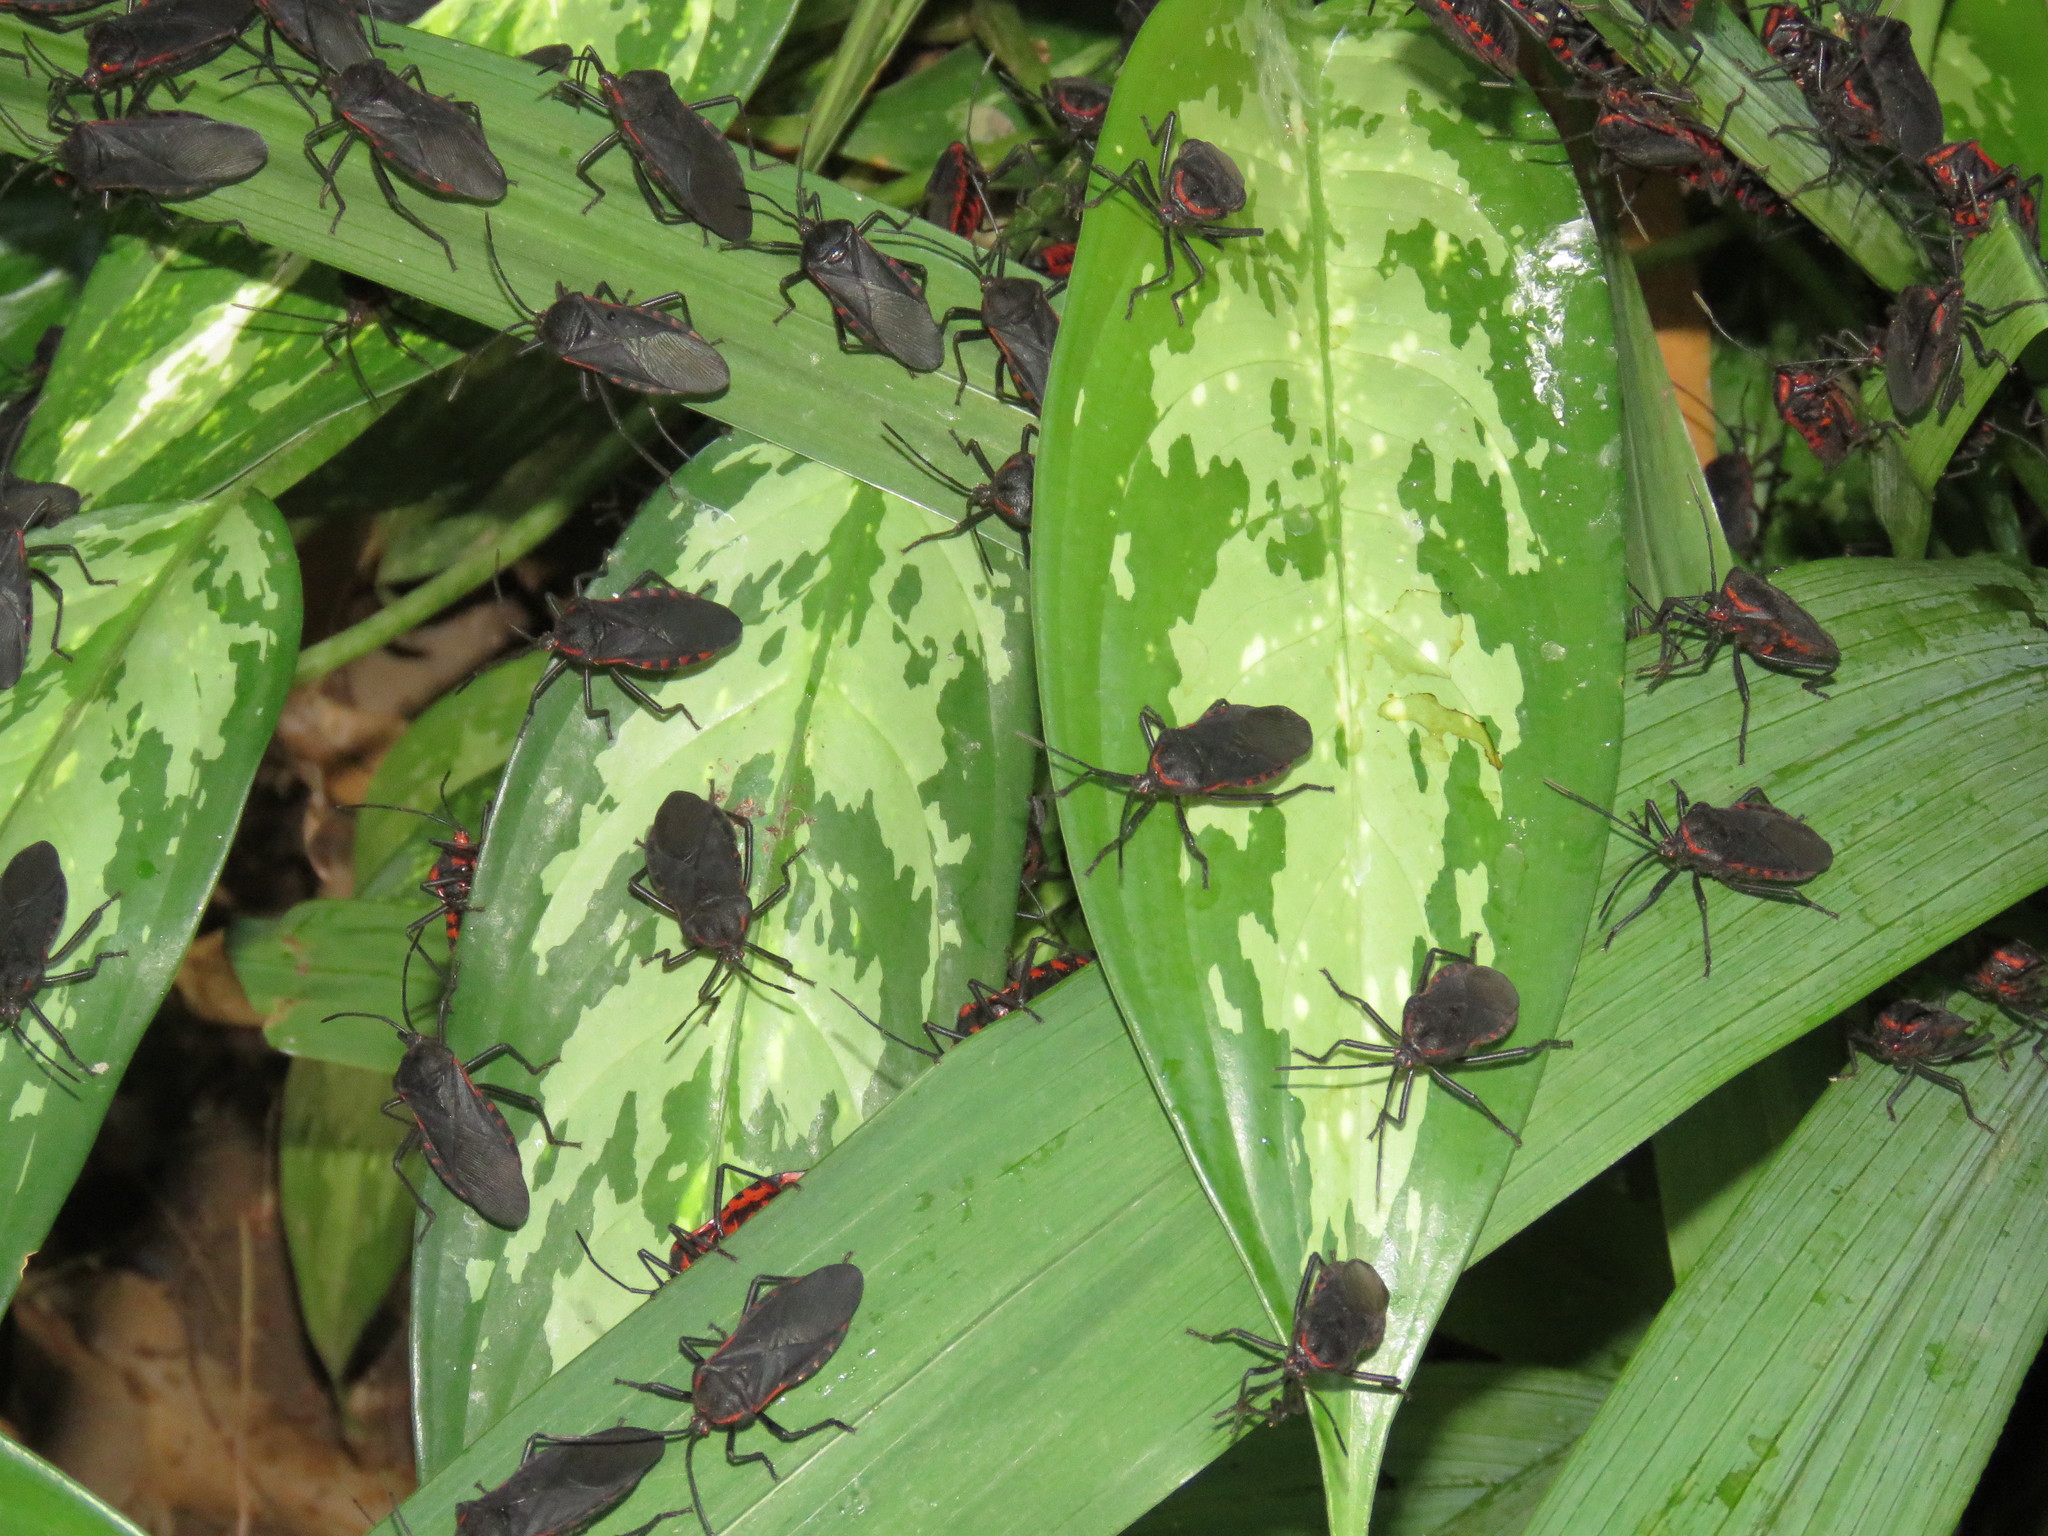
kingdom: Animalia
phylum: Arthropoda
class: Insecta
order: Hemiptera
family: Coreidae
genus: Sephina
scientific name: Sephina subulata
